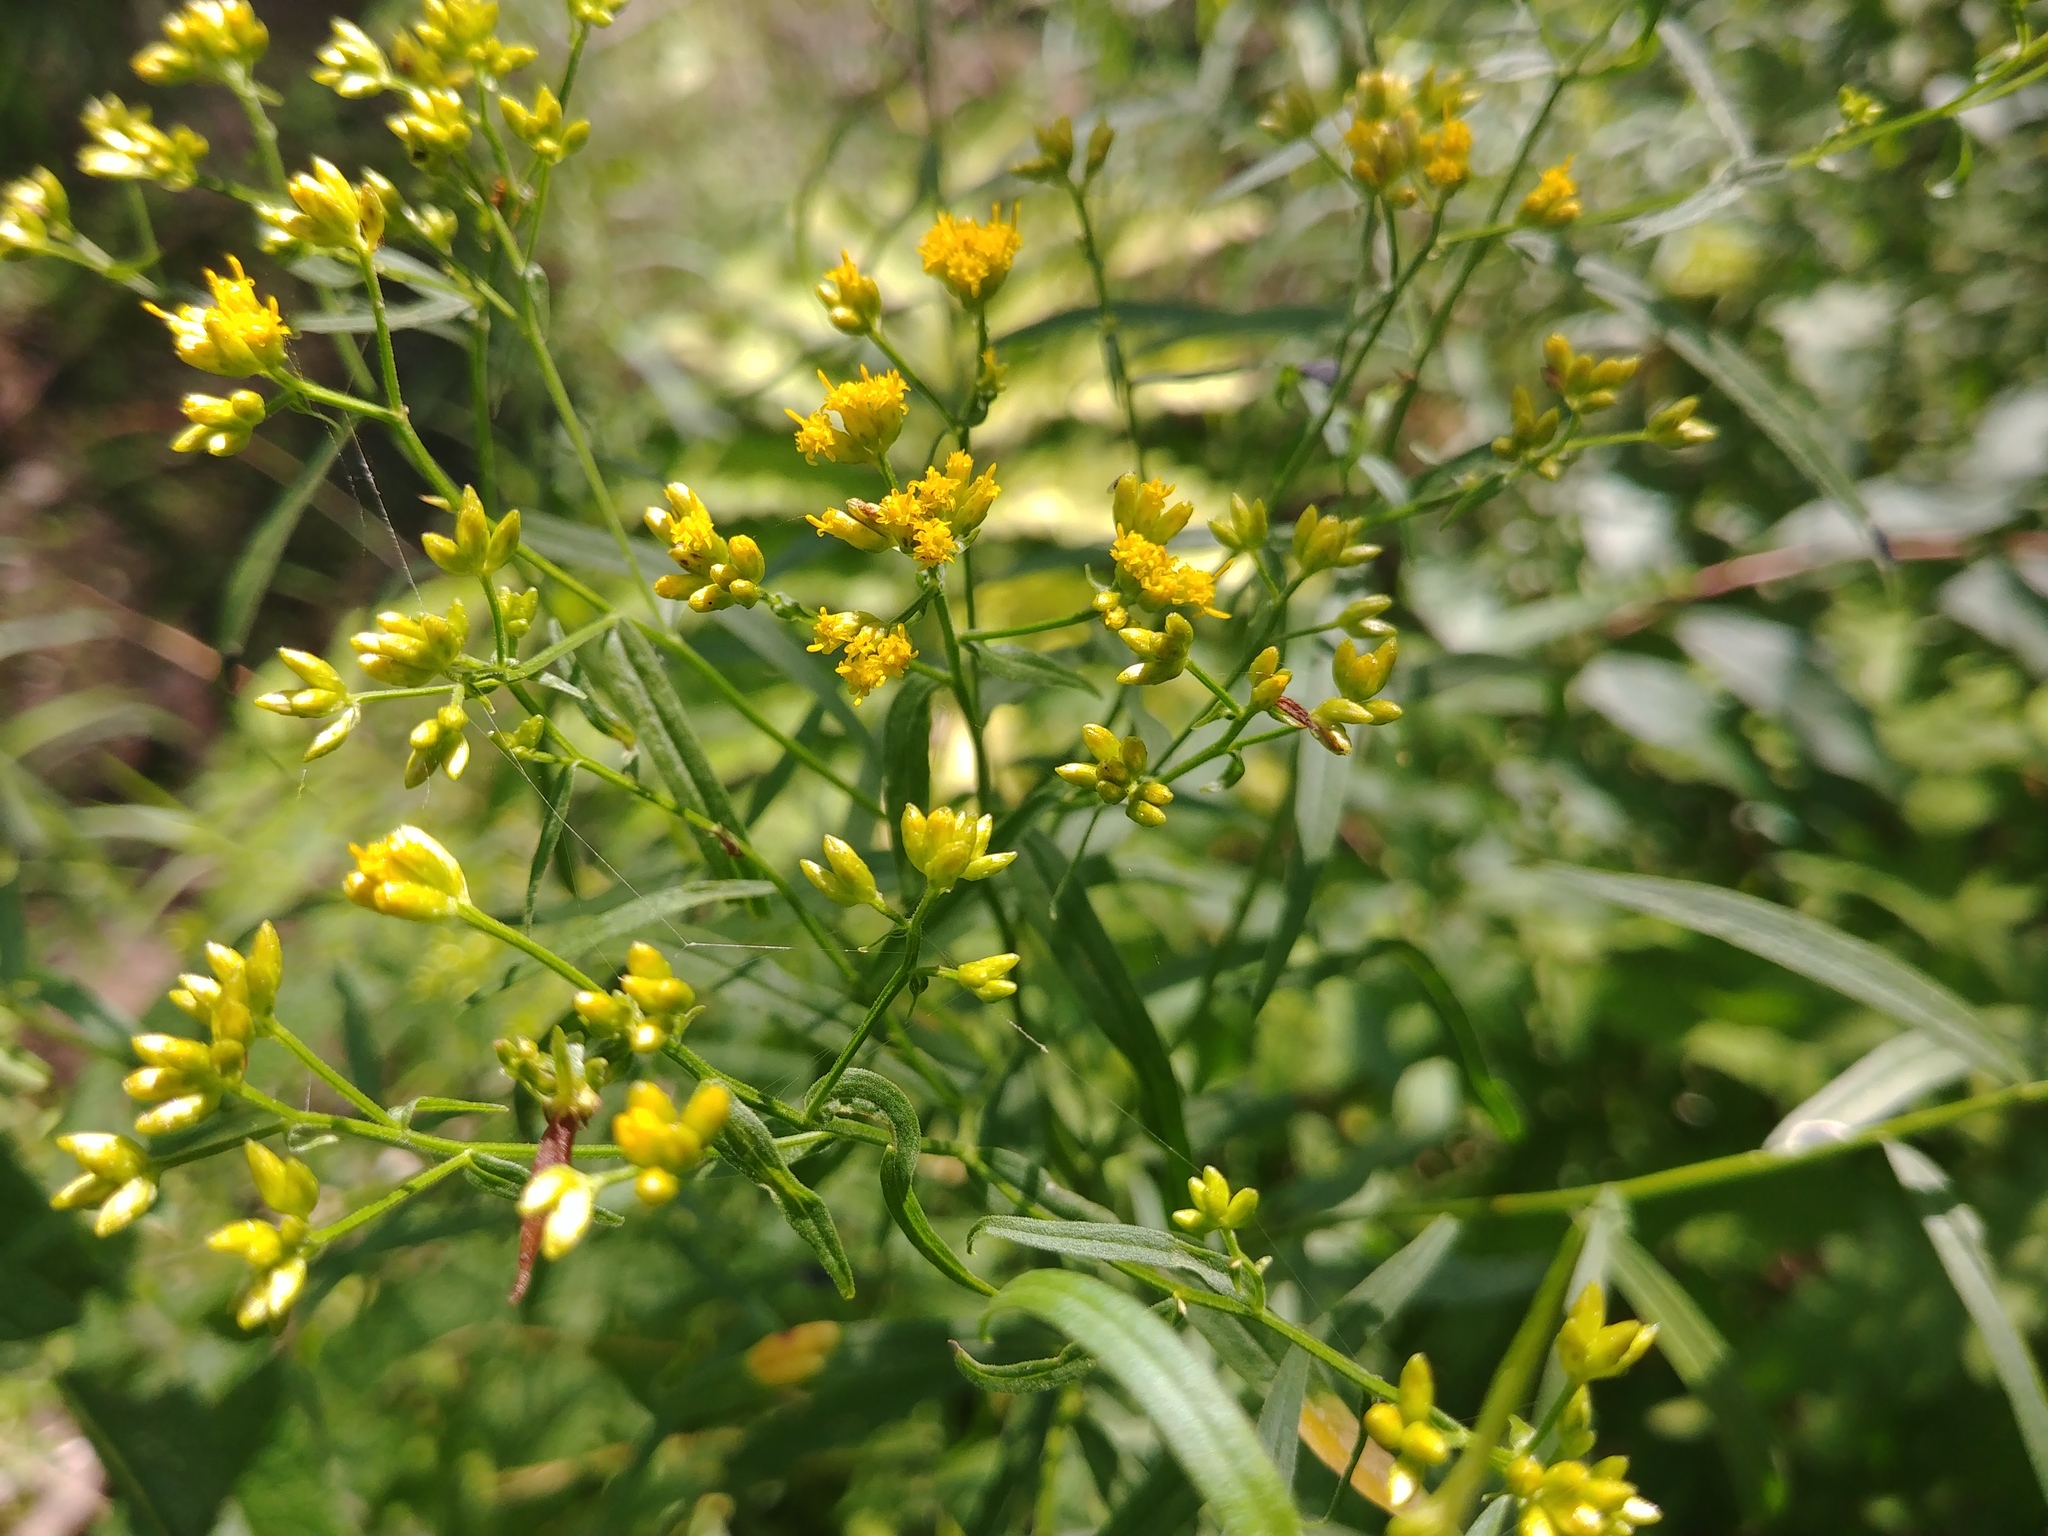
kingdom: Plantae
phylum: Tracheophyta
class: Magnoliopsida
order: Asterales
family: Asteraceae
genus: Euthamia
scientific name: Euthamia graminifolia
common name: Common goldentop
